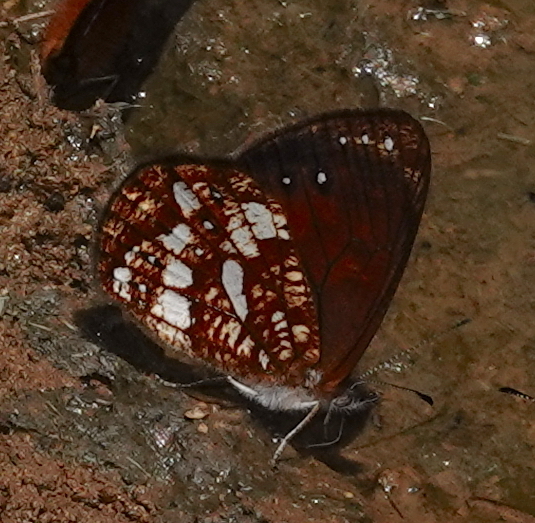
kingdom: Animalia
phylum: Arthropoda
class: Insecta
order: Lepidoptera
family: Nymphalidae
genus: Lymanopoda
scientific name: Lymanopoda labda
